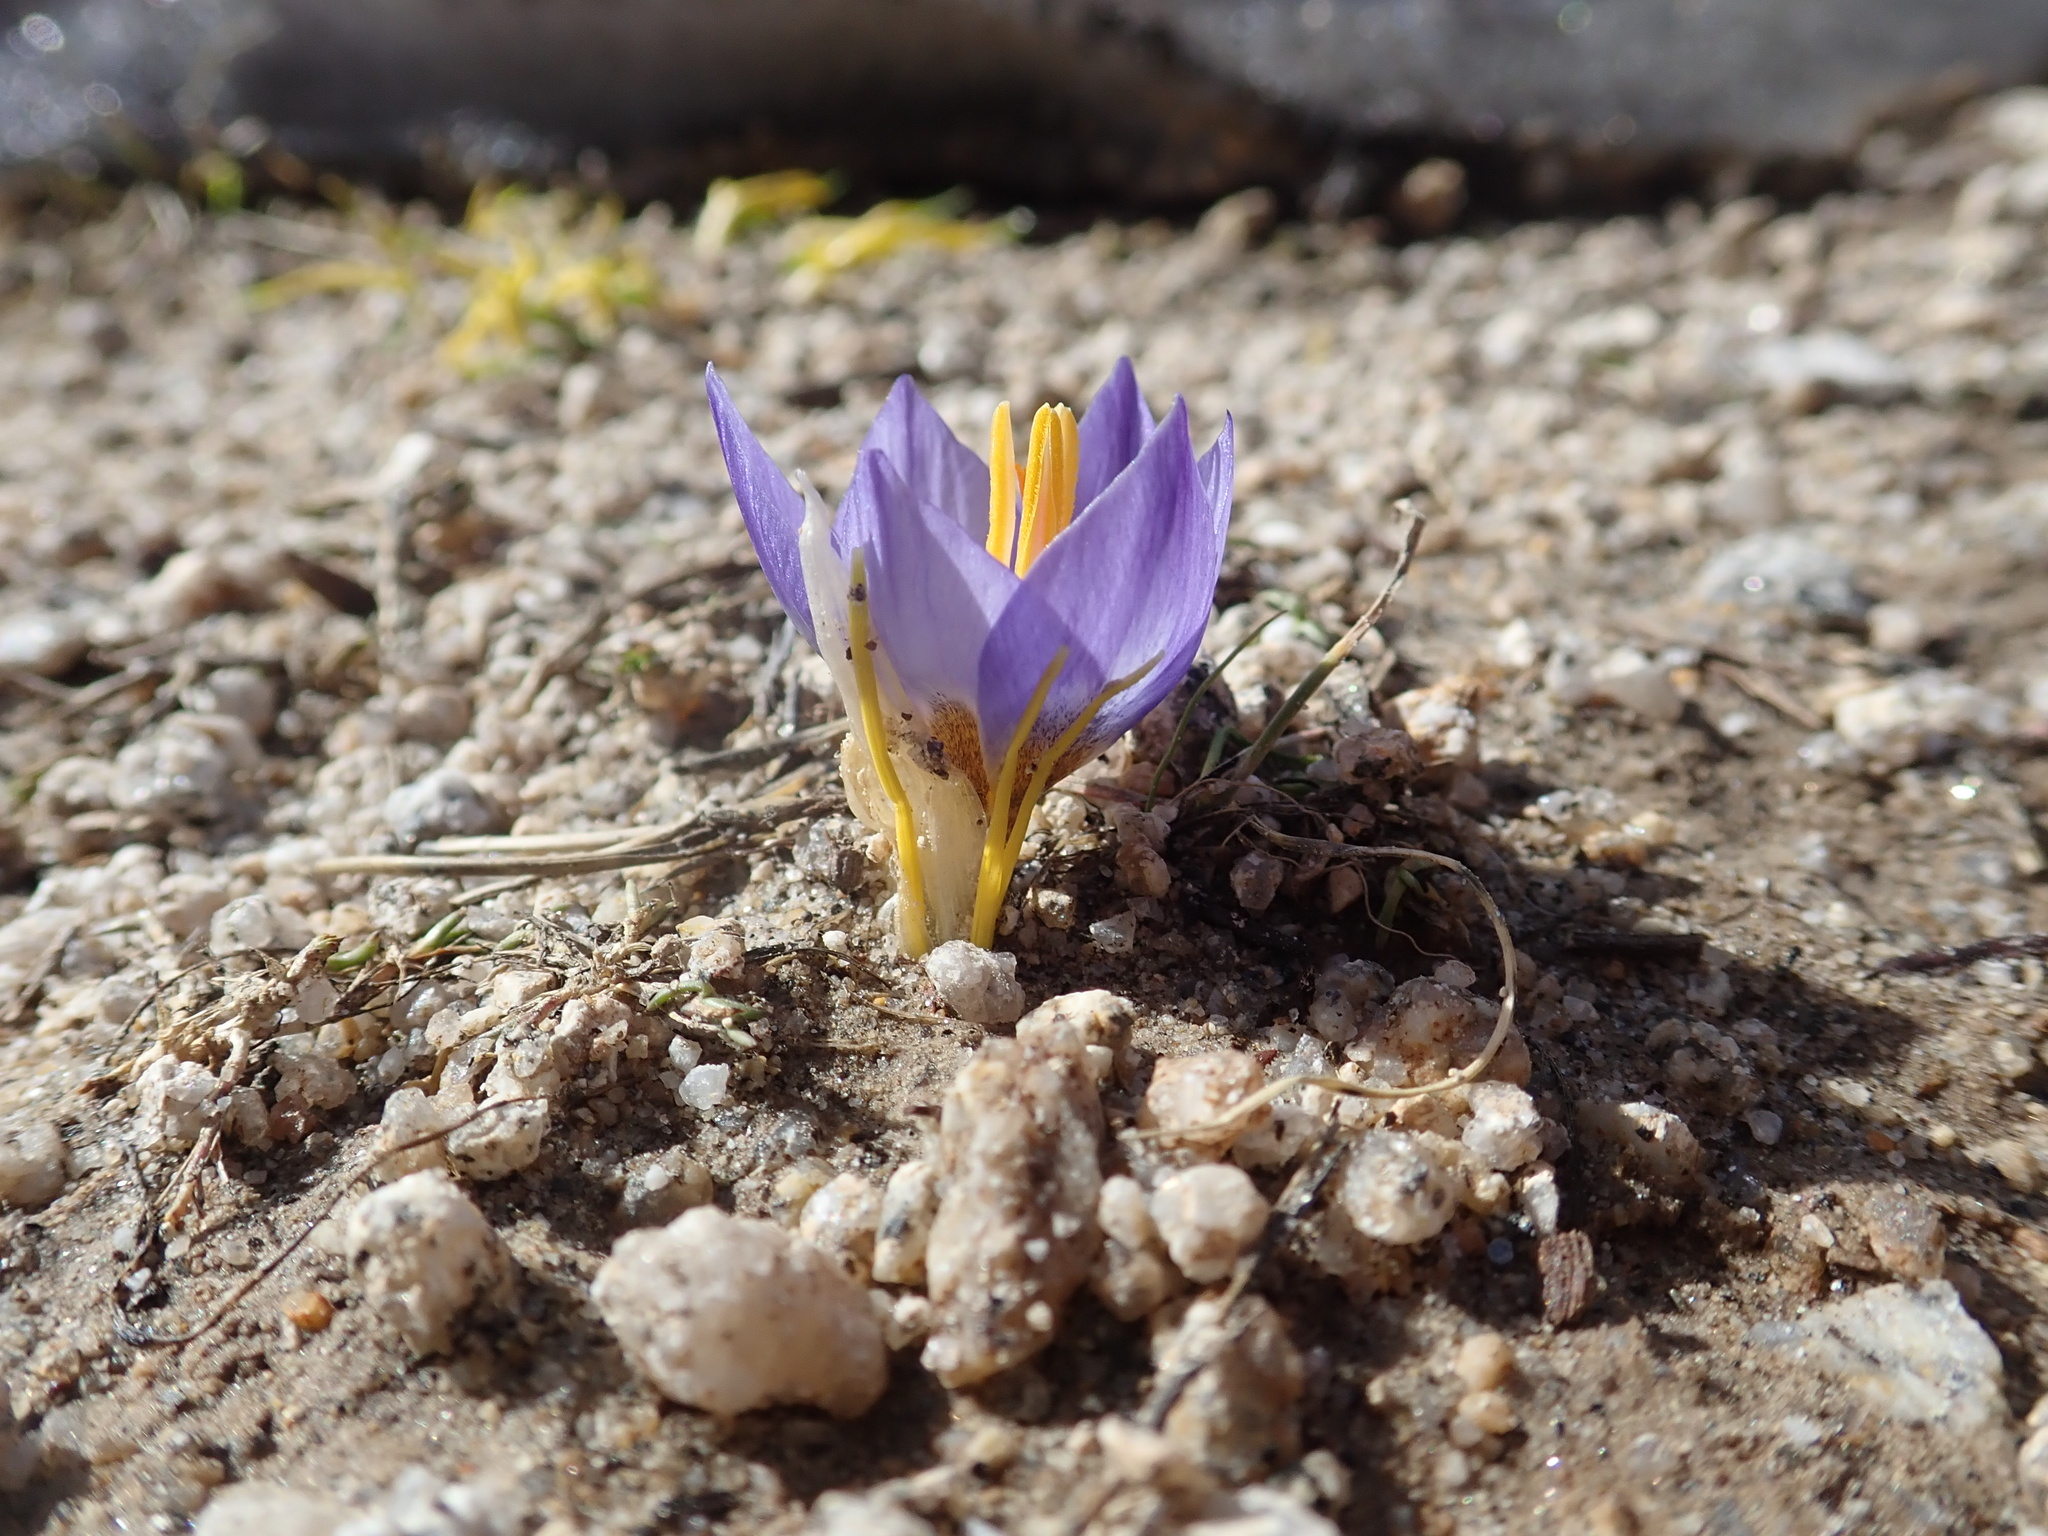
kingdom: Plantae
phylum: Tracheophyta
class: Liliopsida
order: Asparagales
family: Iridaceae
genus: Crocus
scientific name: Crocus pulchricolor
